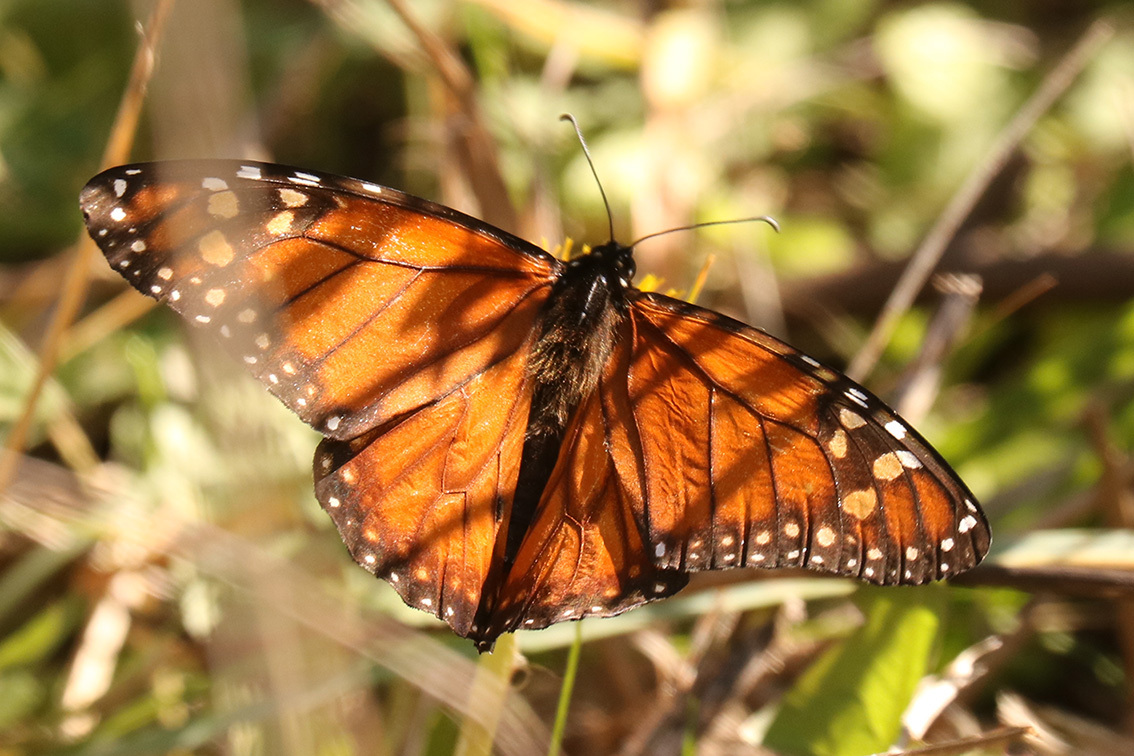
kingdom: Animalia
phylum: Arthropoda
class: Insecta
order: Lepidoptera
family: Nymphalidae
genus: Danaus
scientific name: Danaus erippus
